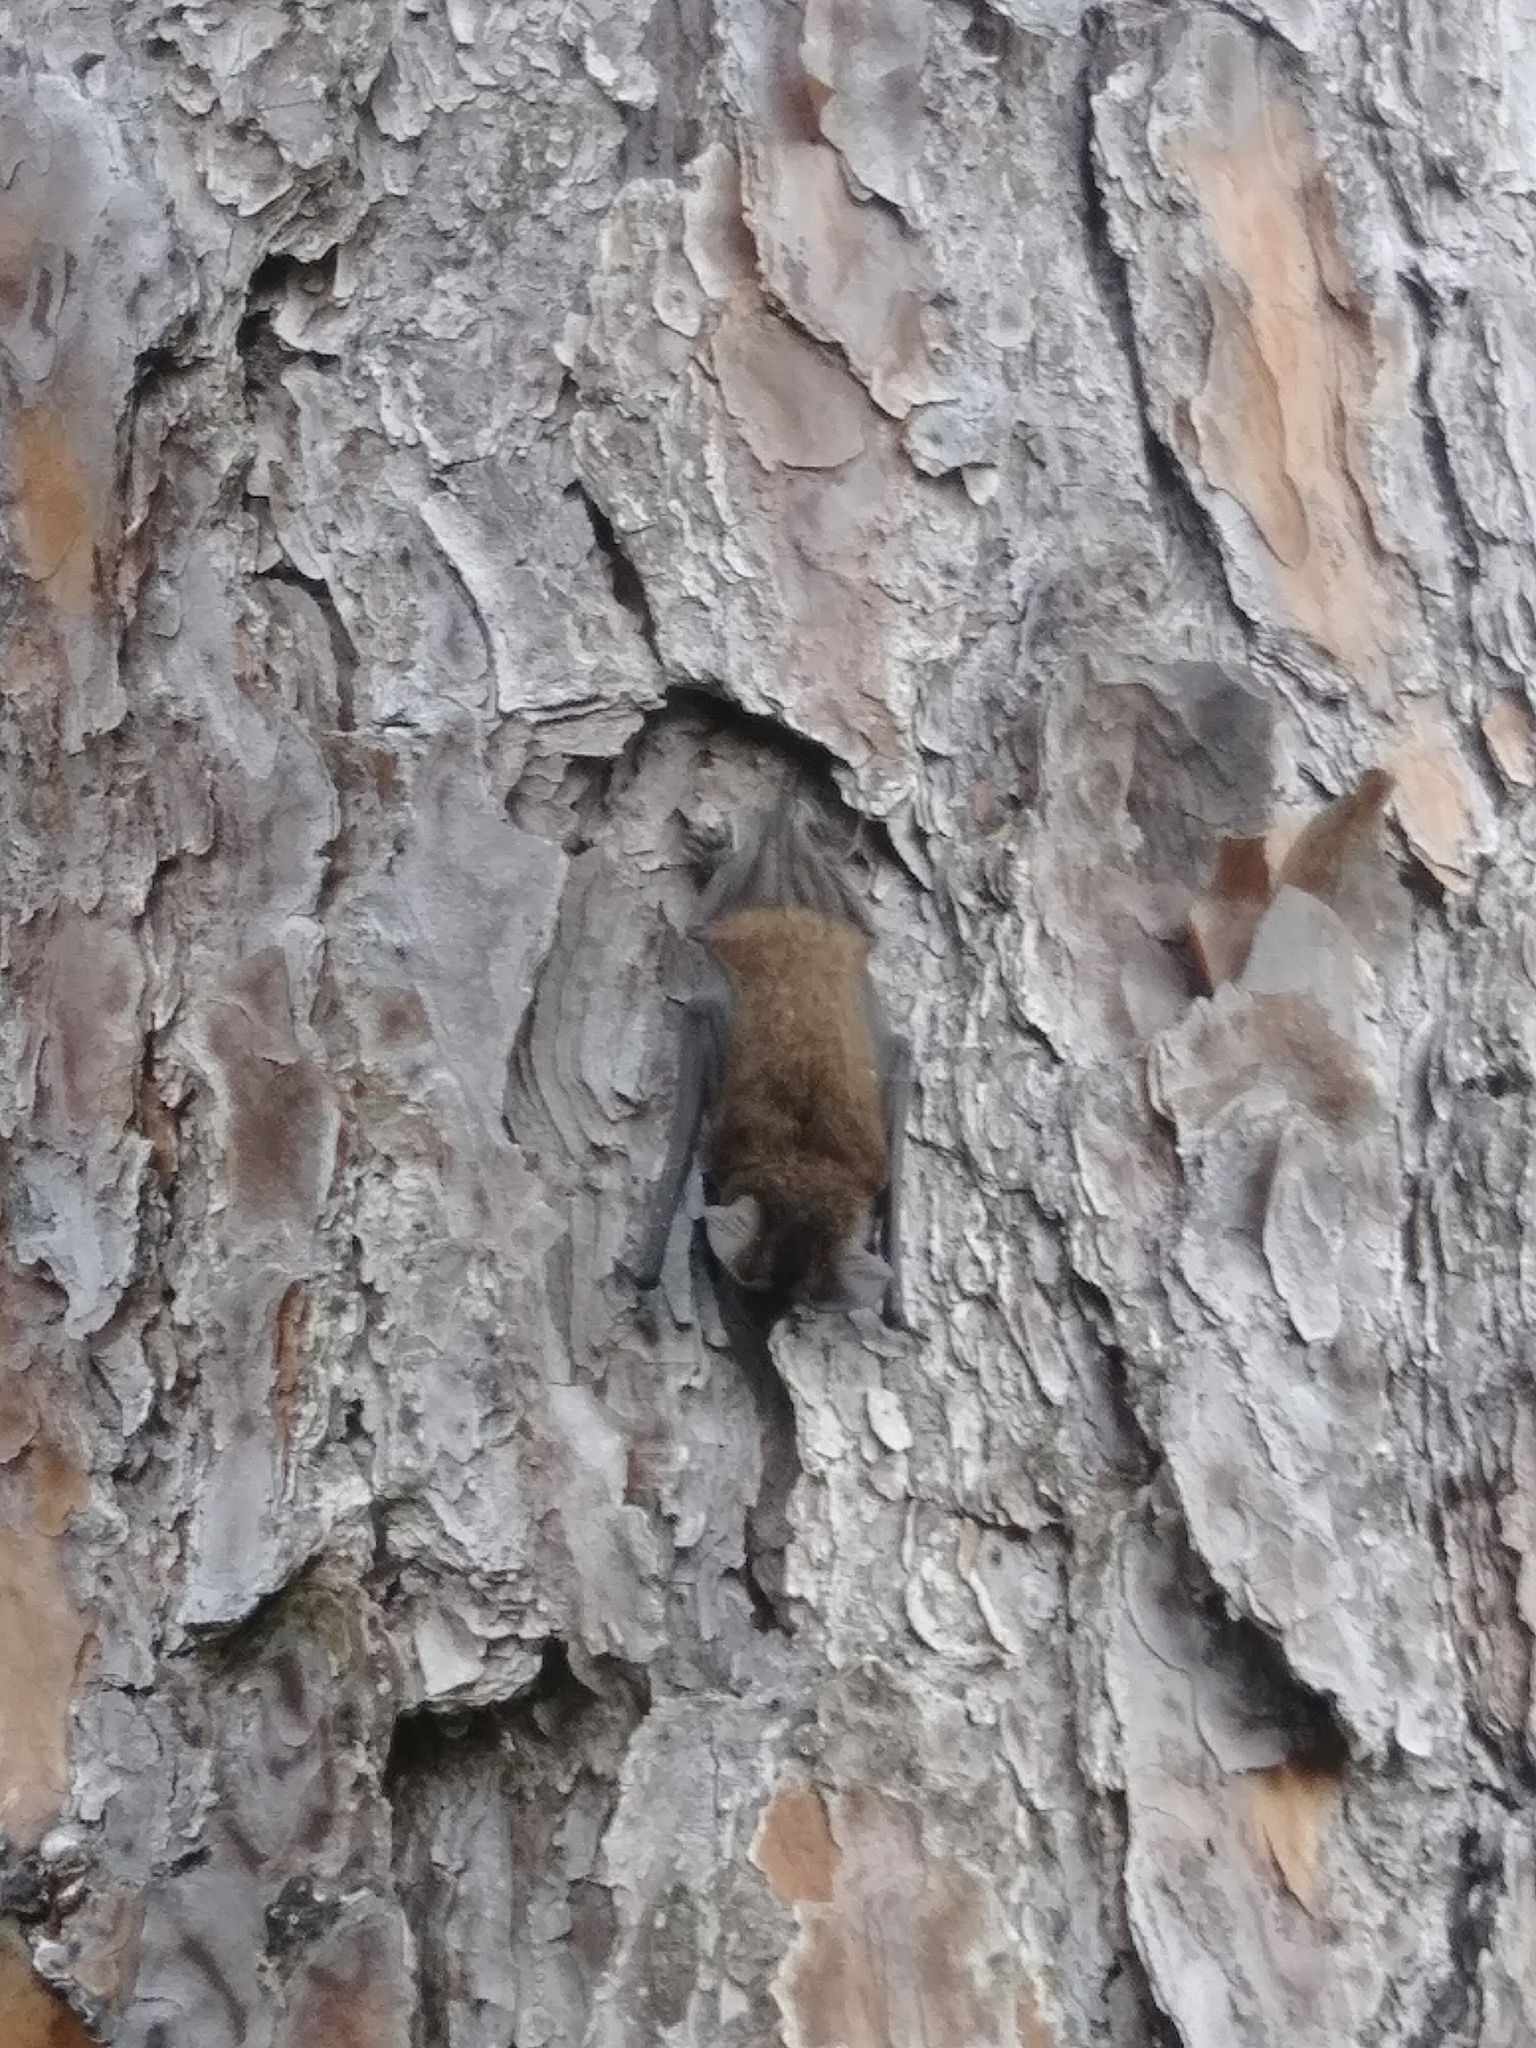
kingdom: Animalia
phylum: Chordata
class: Mammalia
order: Chiroptera
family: Molossidae
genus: Tadarida
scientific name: Tadarida brasiliensis
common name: Mexican free-tailed bat
